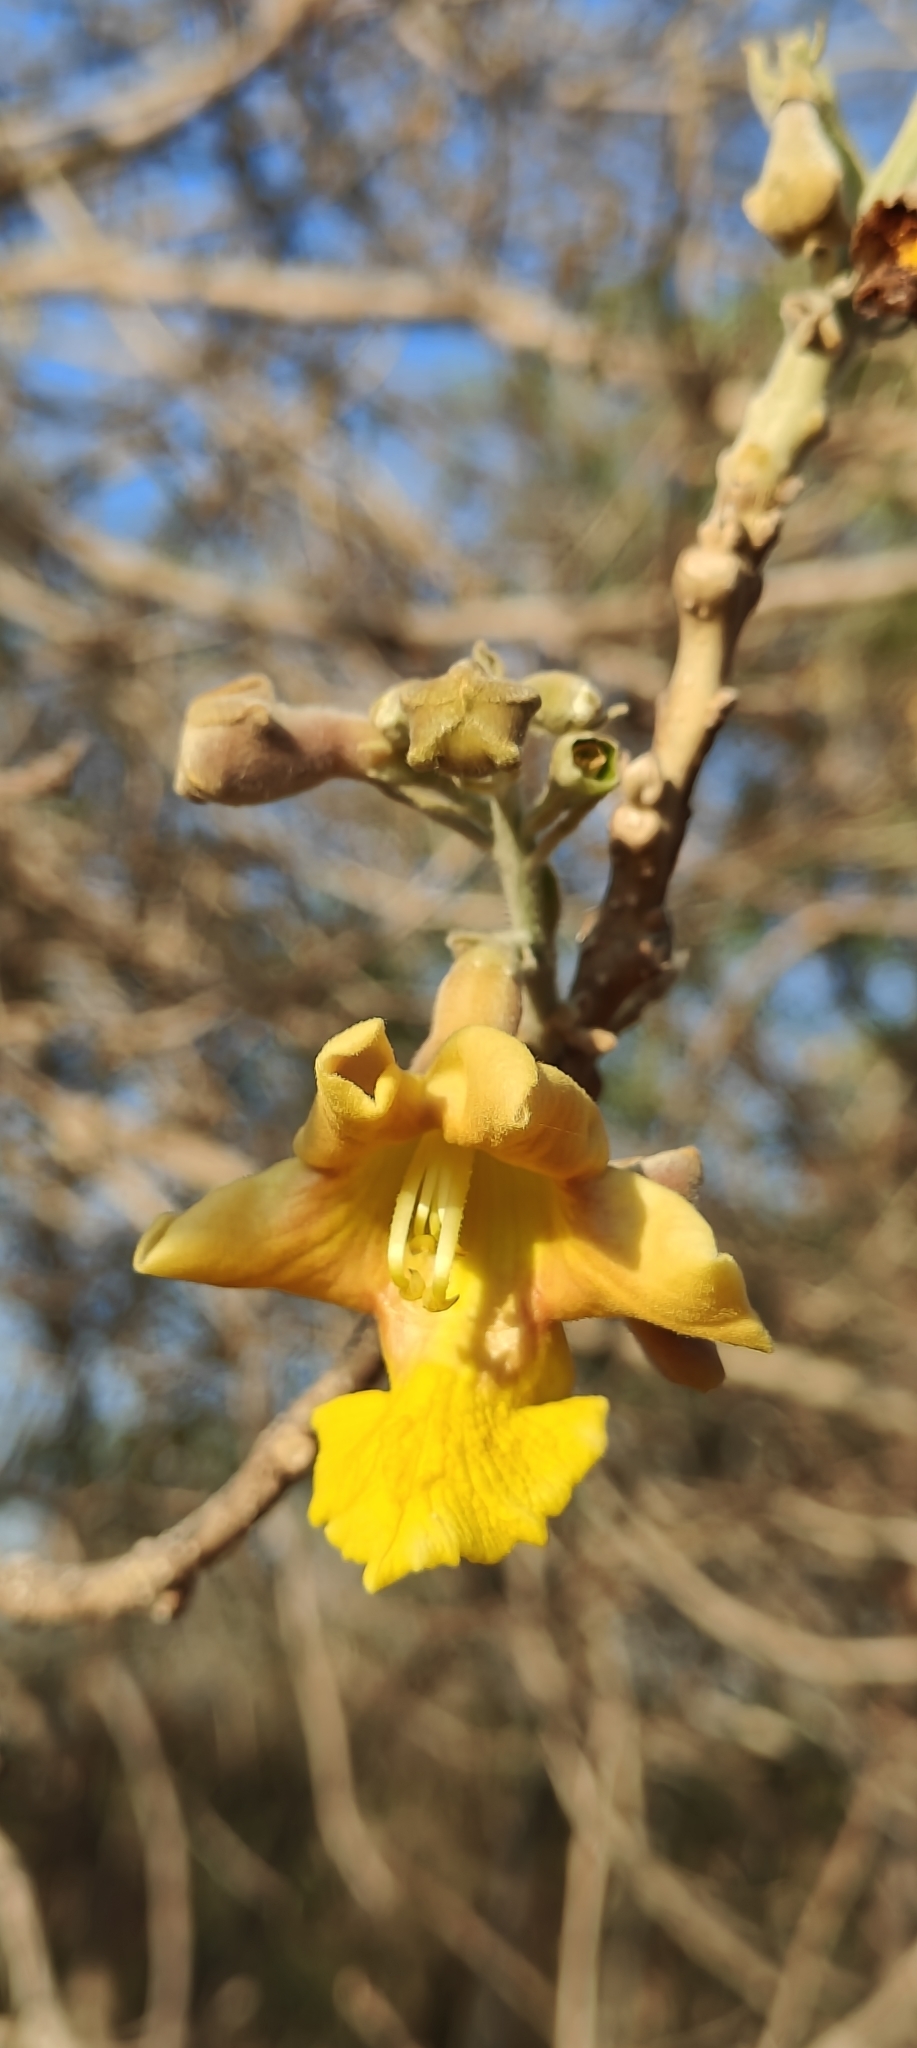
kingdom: Plantae
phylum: Tracheophyta
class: Magnoliopsida
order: Lamiales
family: Lamiaceae
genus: Gmelina
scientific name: Gmelina arborea
